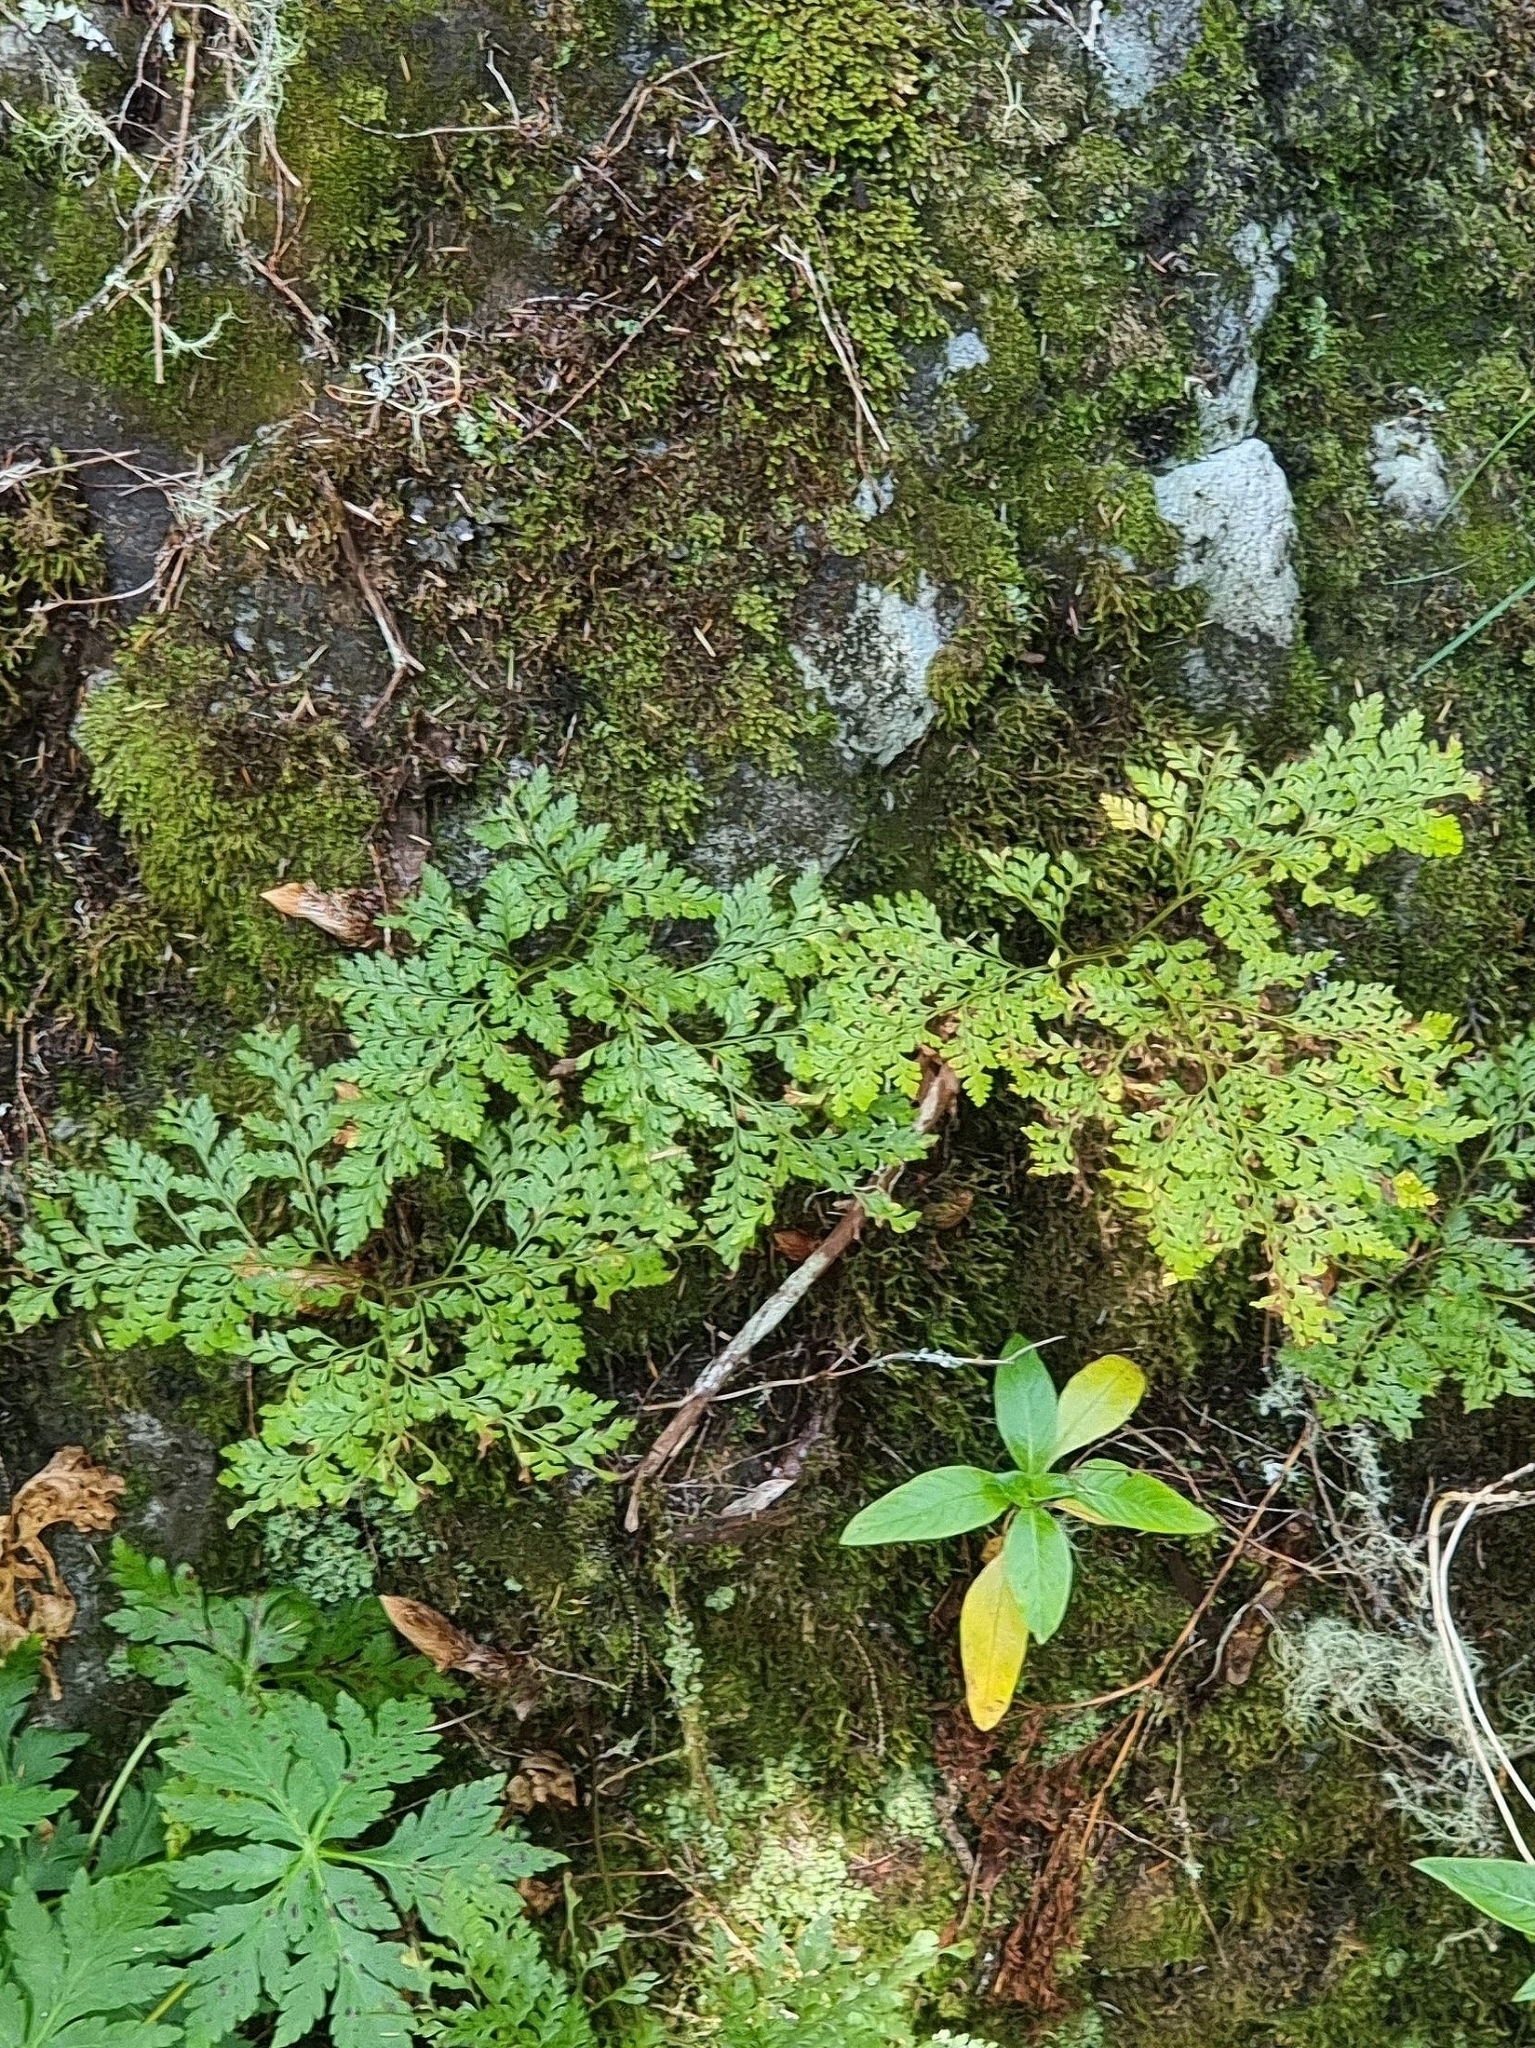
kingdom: Plantae
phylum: Tracheophyta
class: Polypodiopsida
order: Polypodiales
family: Davalliaceae
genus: Davallia
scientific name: Davallia canariensis
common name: Hare's-foot fern
